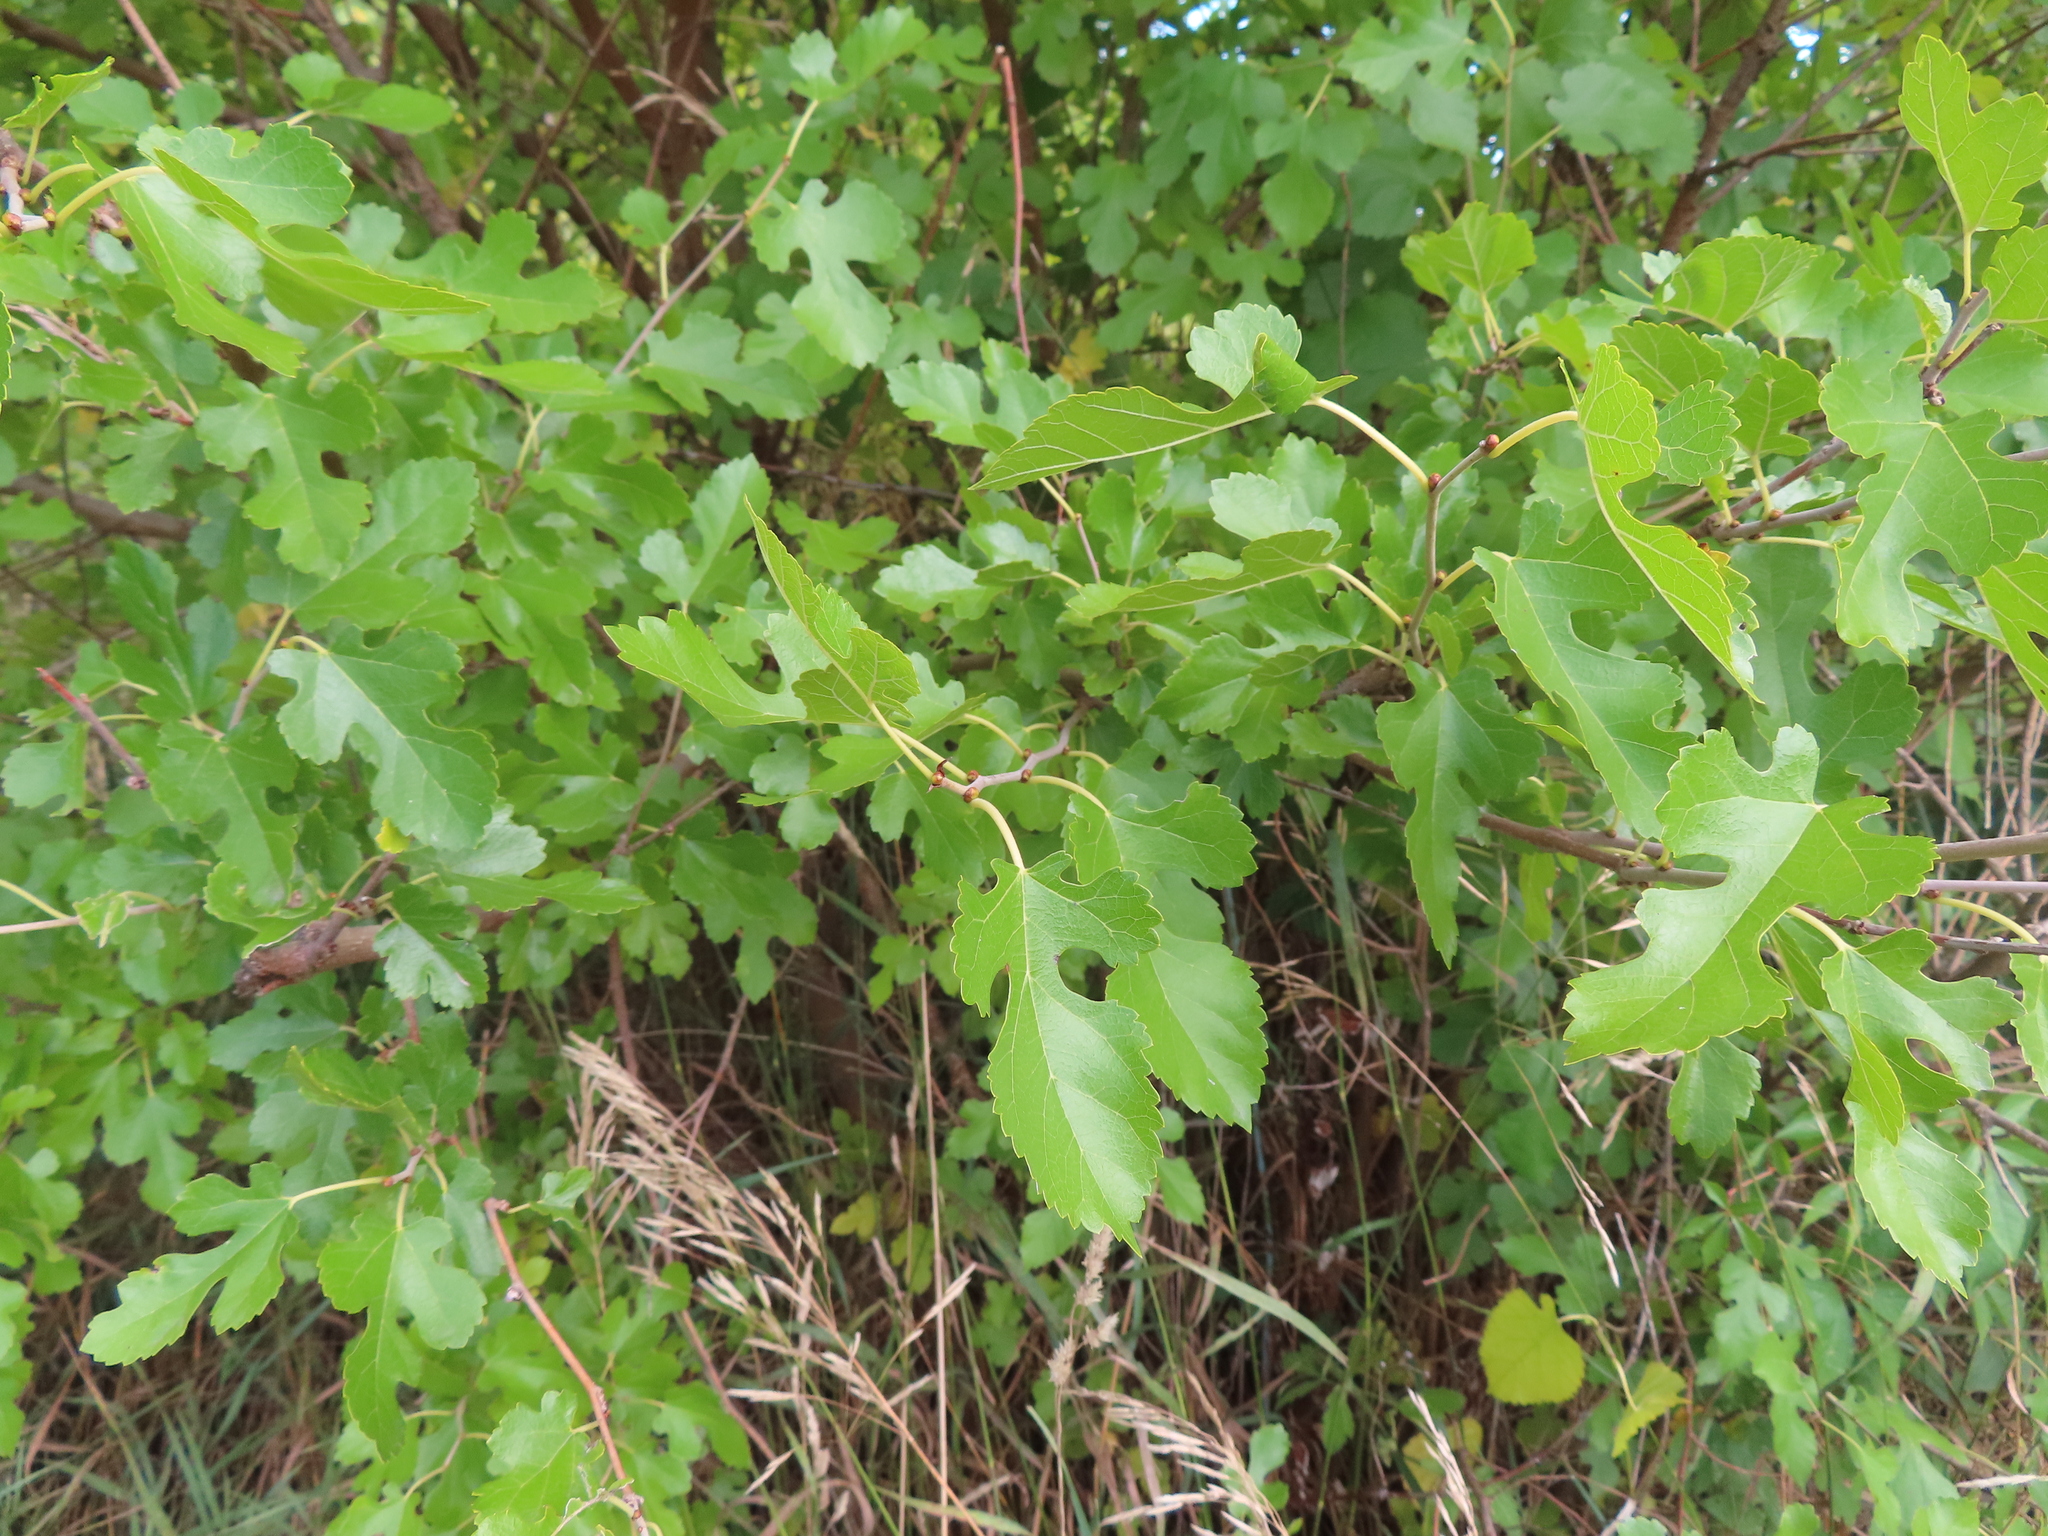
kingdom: Plantae
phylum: Tracheophyta
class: Magnoliopsida
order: Rosales
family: Moraceae
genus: Morus
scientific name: Morus alba
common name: White mulberry
